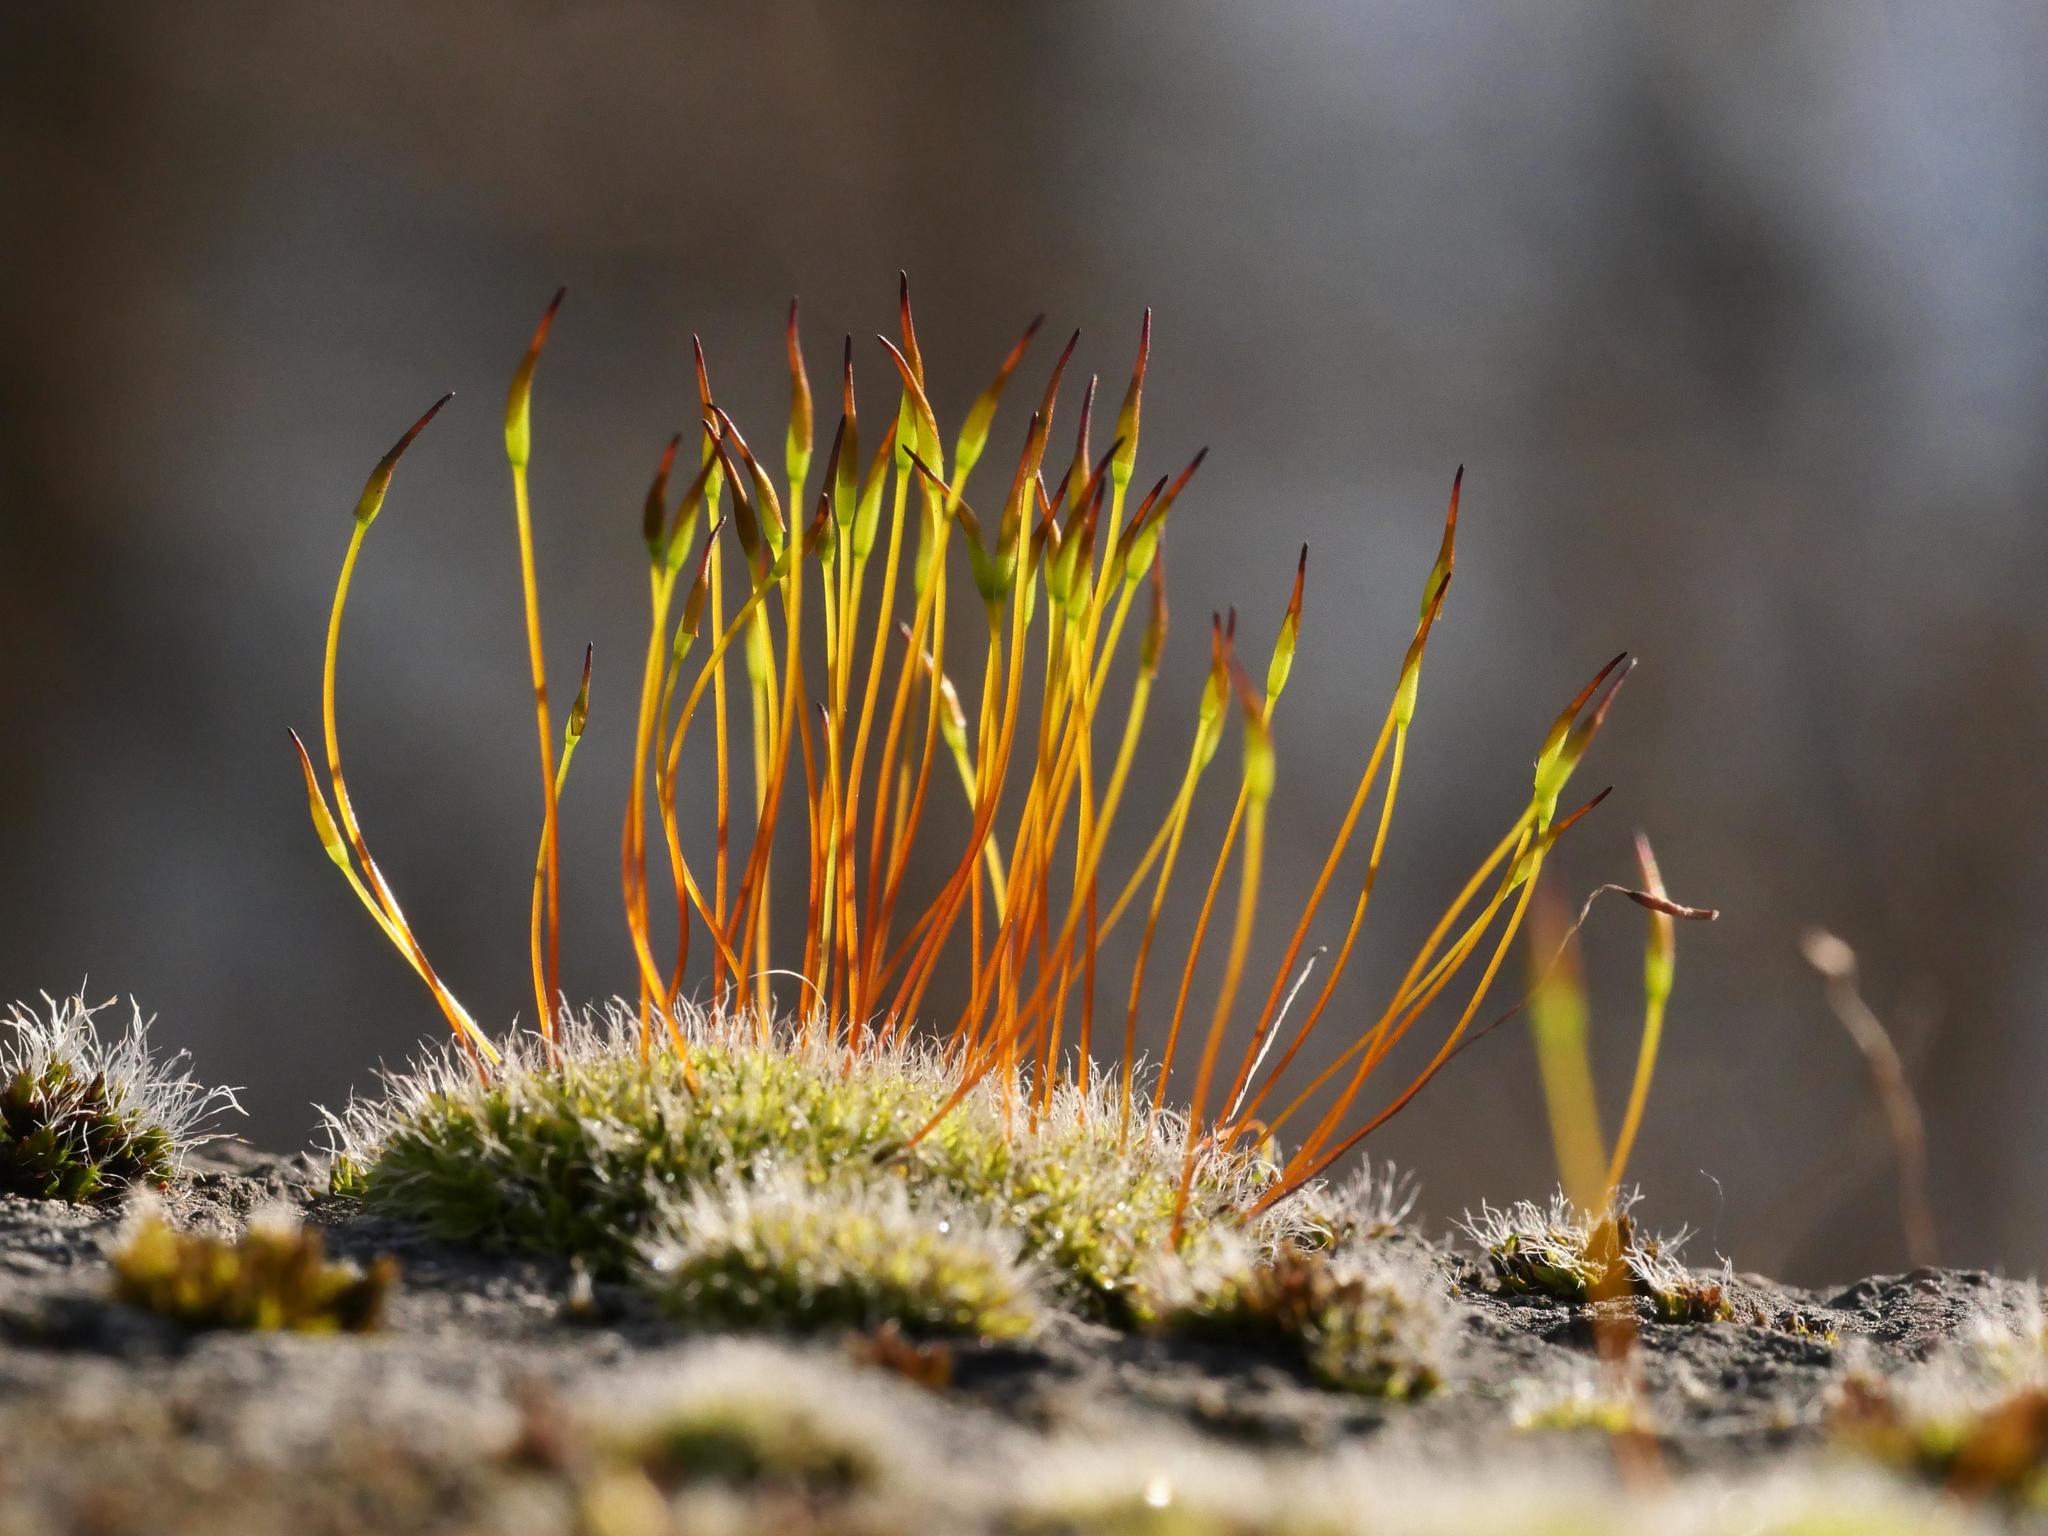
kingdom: Plantae
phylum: Bryophyta
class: Bryopsida
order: Pottiales
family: Pottiaceae
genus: Tortula
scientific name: Tortula muralis
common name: Wall screw-moss
